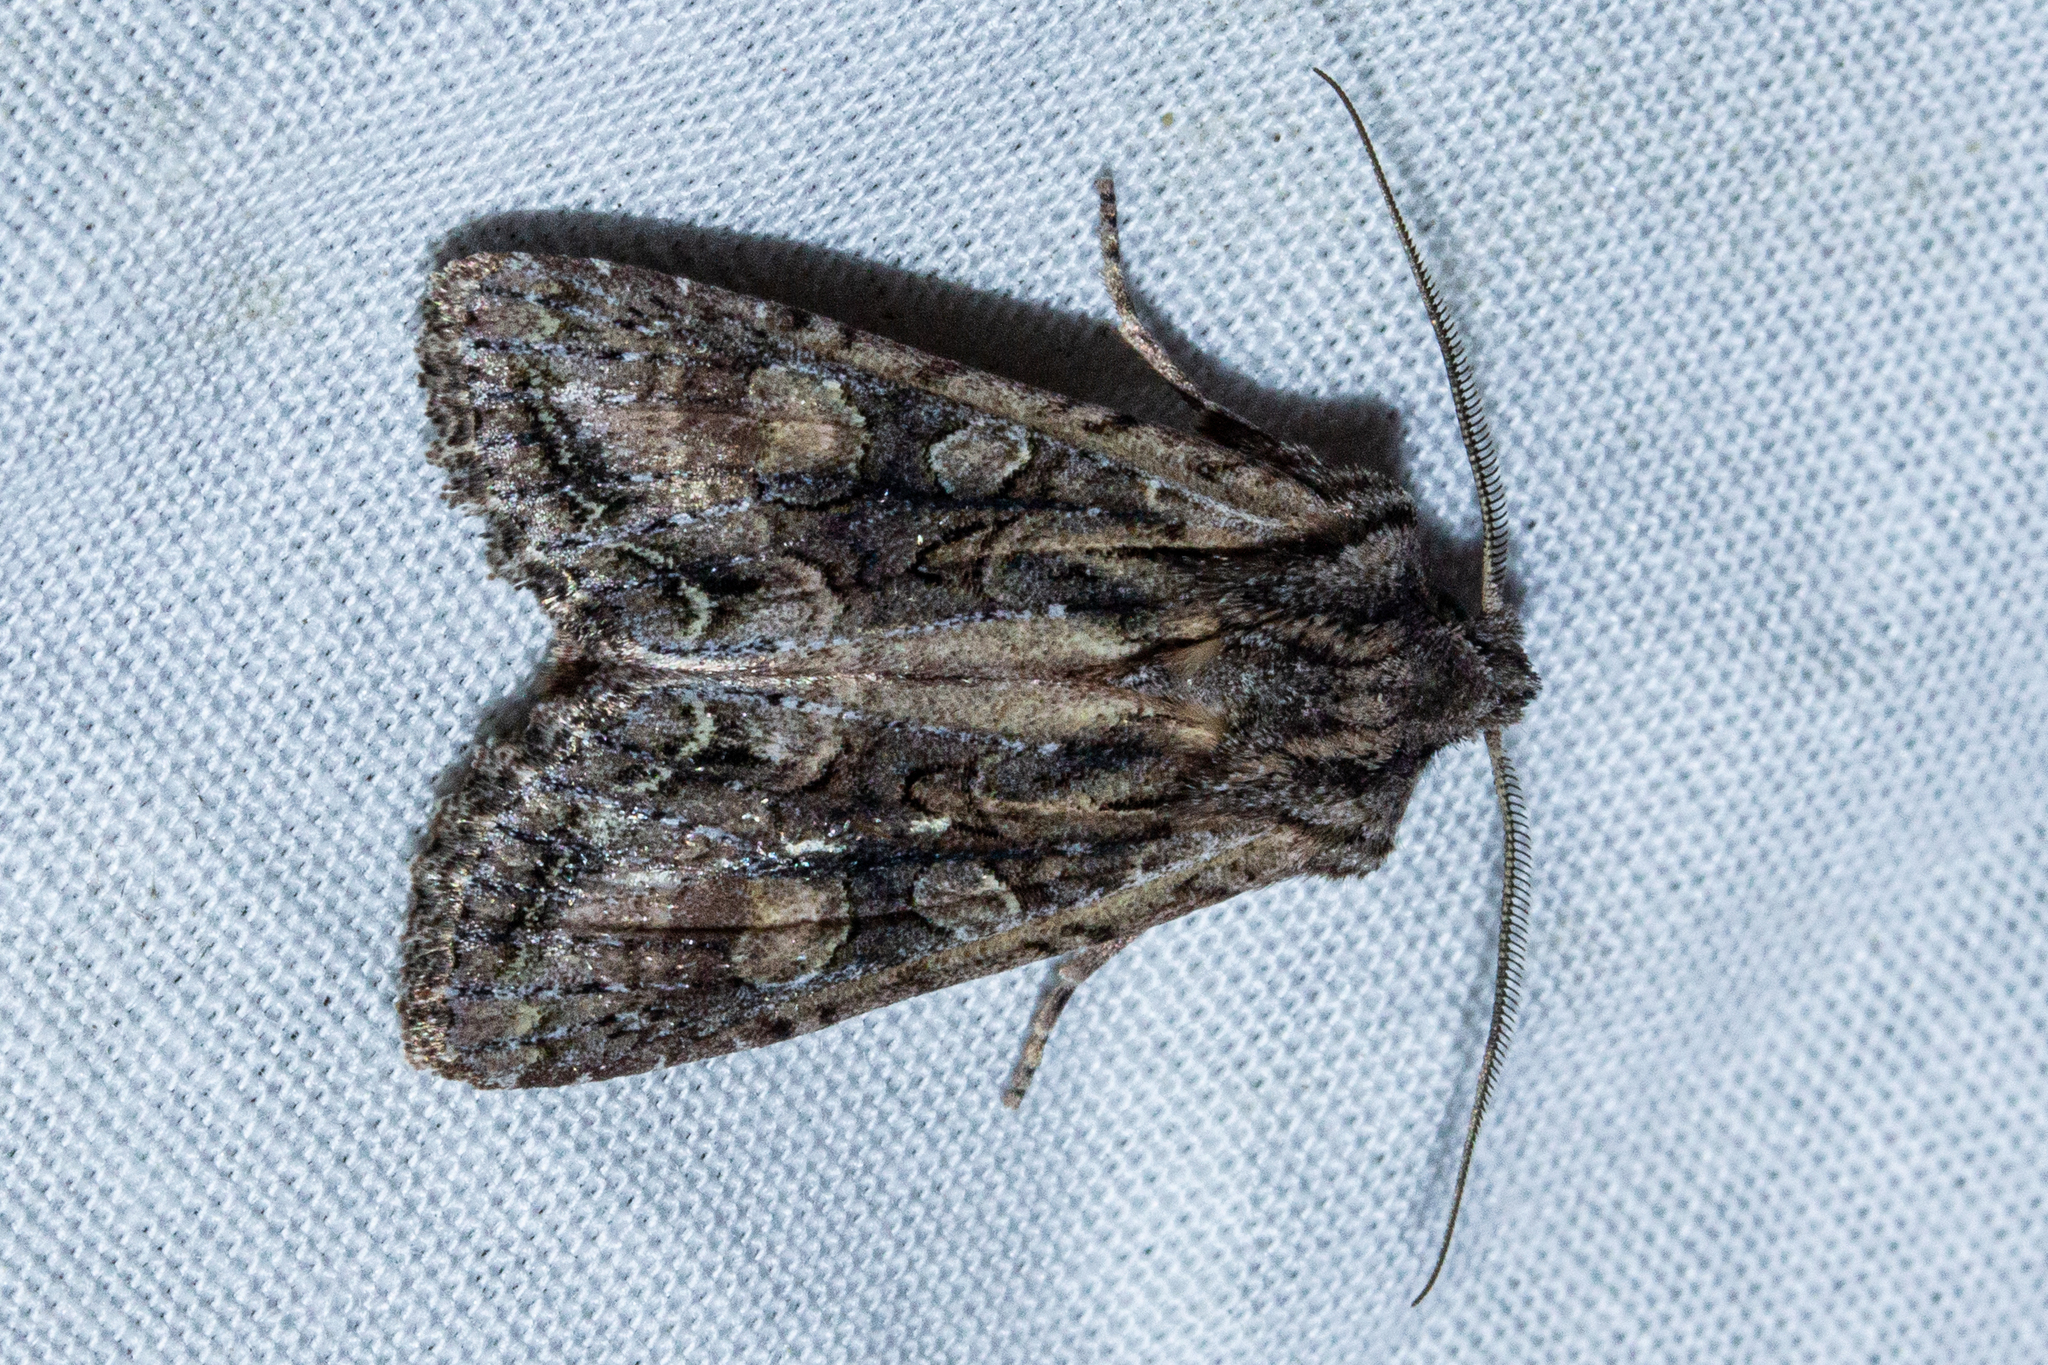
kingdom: Animalia
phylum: Arthropoda
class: Insecta
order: Lepidoptera
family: Noctuidae
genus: Ichneutica
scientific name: Ichneutica mutans
